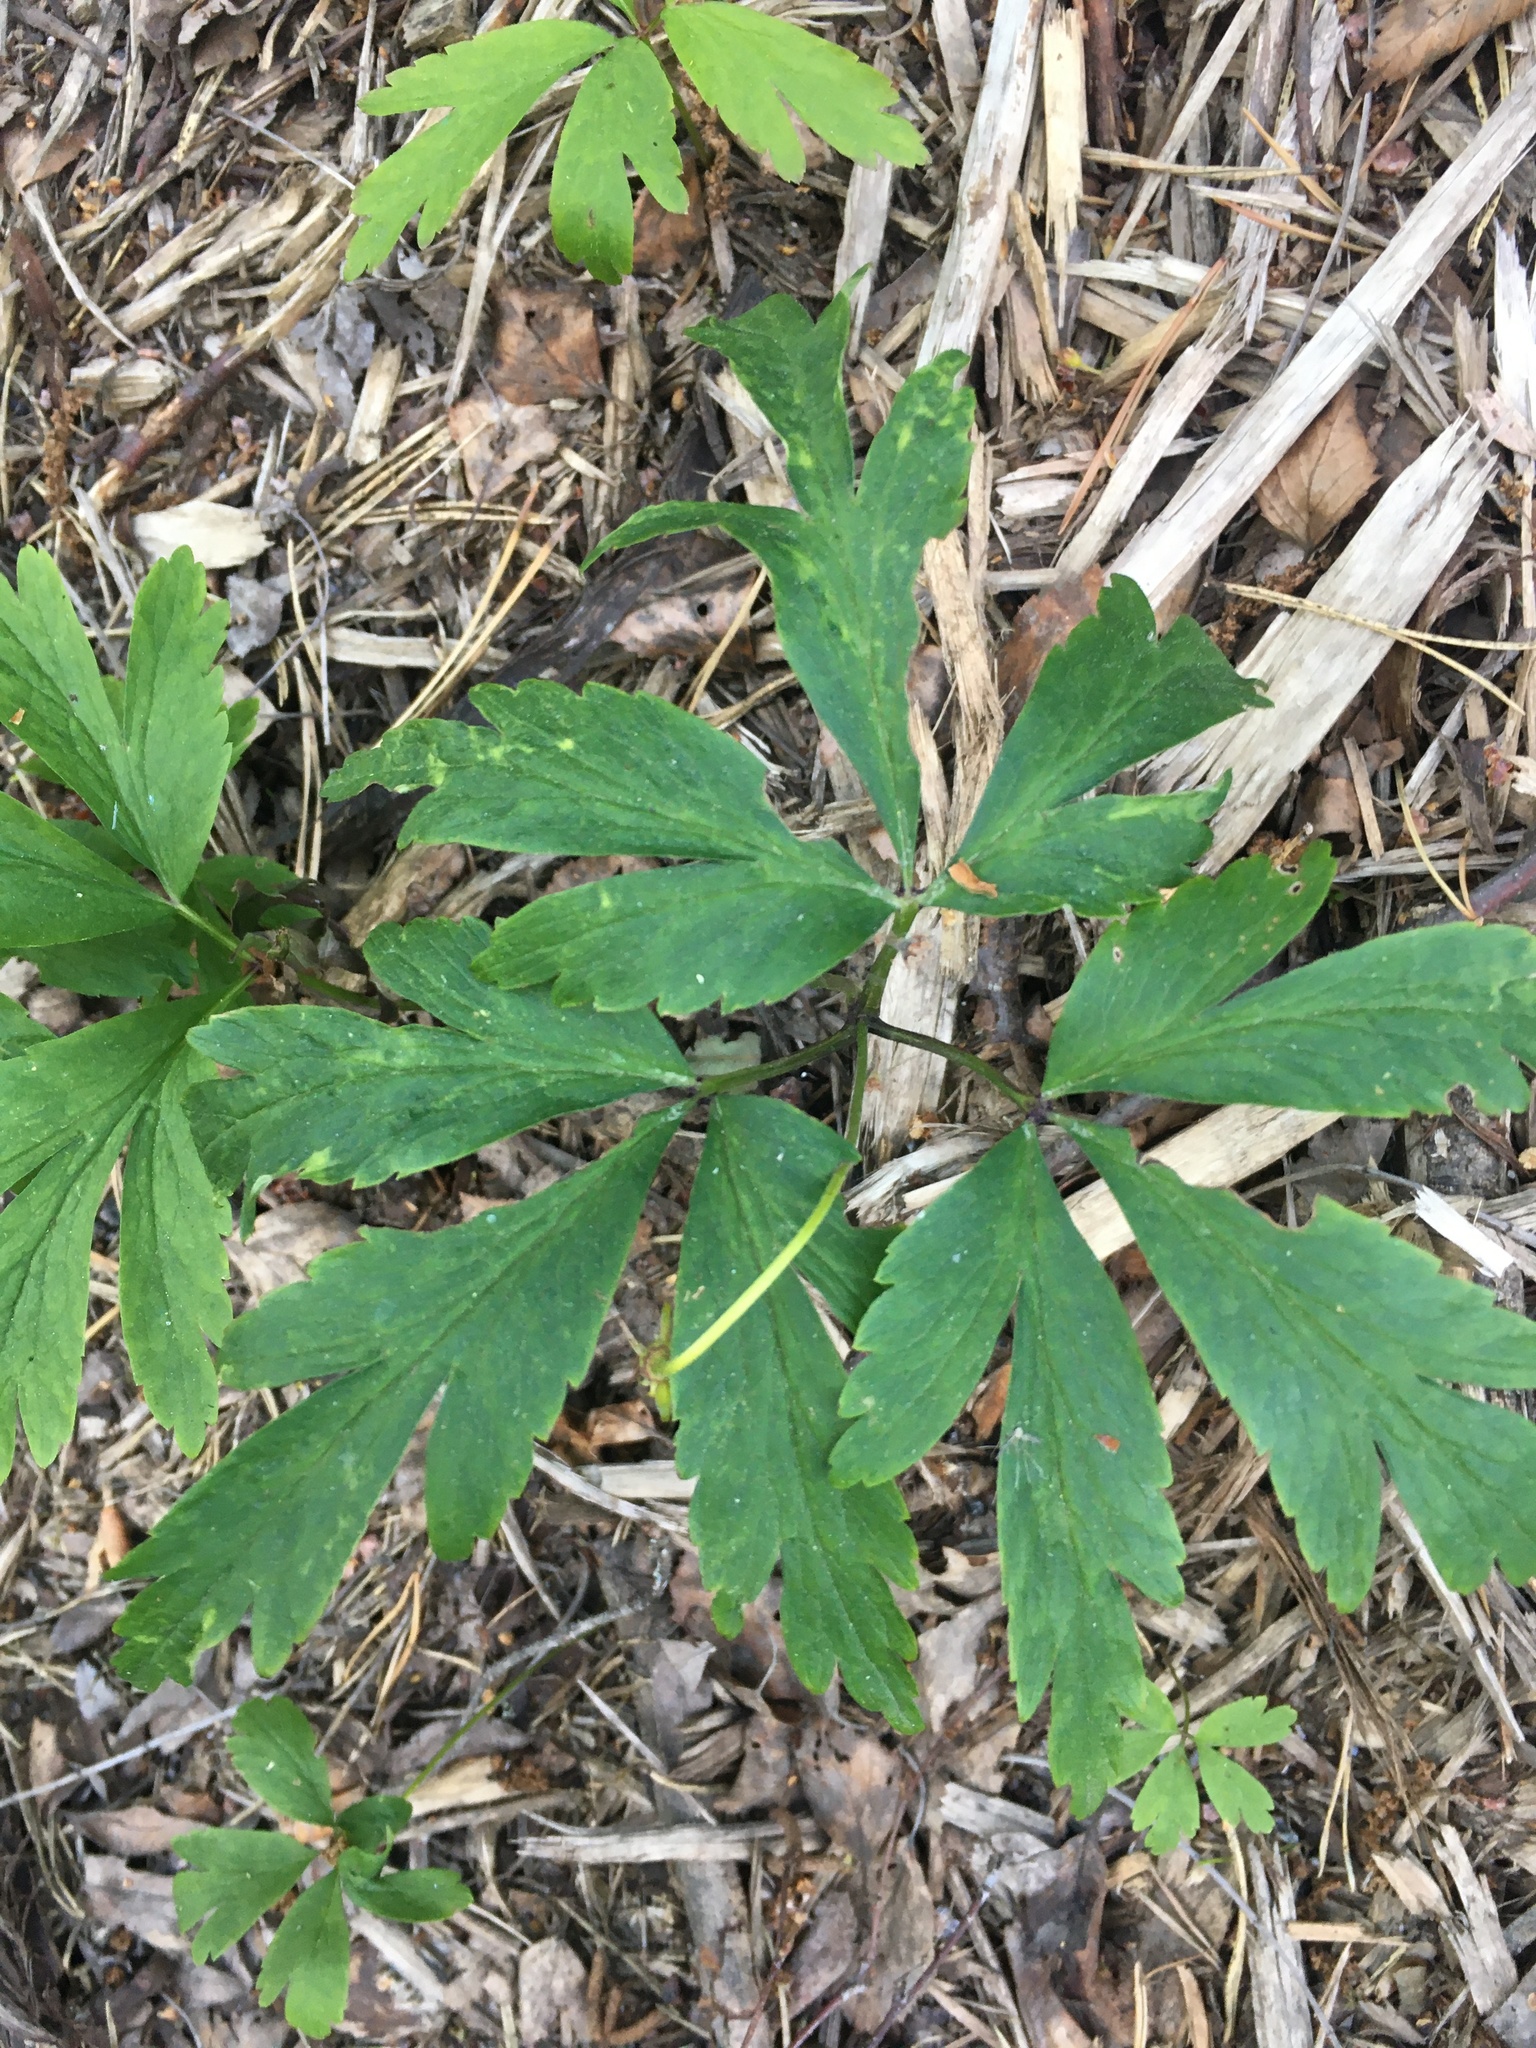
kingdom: Plantae
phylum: Tracheophyta
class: Magnoliopsida
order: Ranunculales
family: Ranunculaceae
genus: Anemone
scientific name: Anemone nemorosa
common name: Wood anemone
